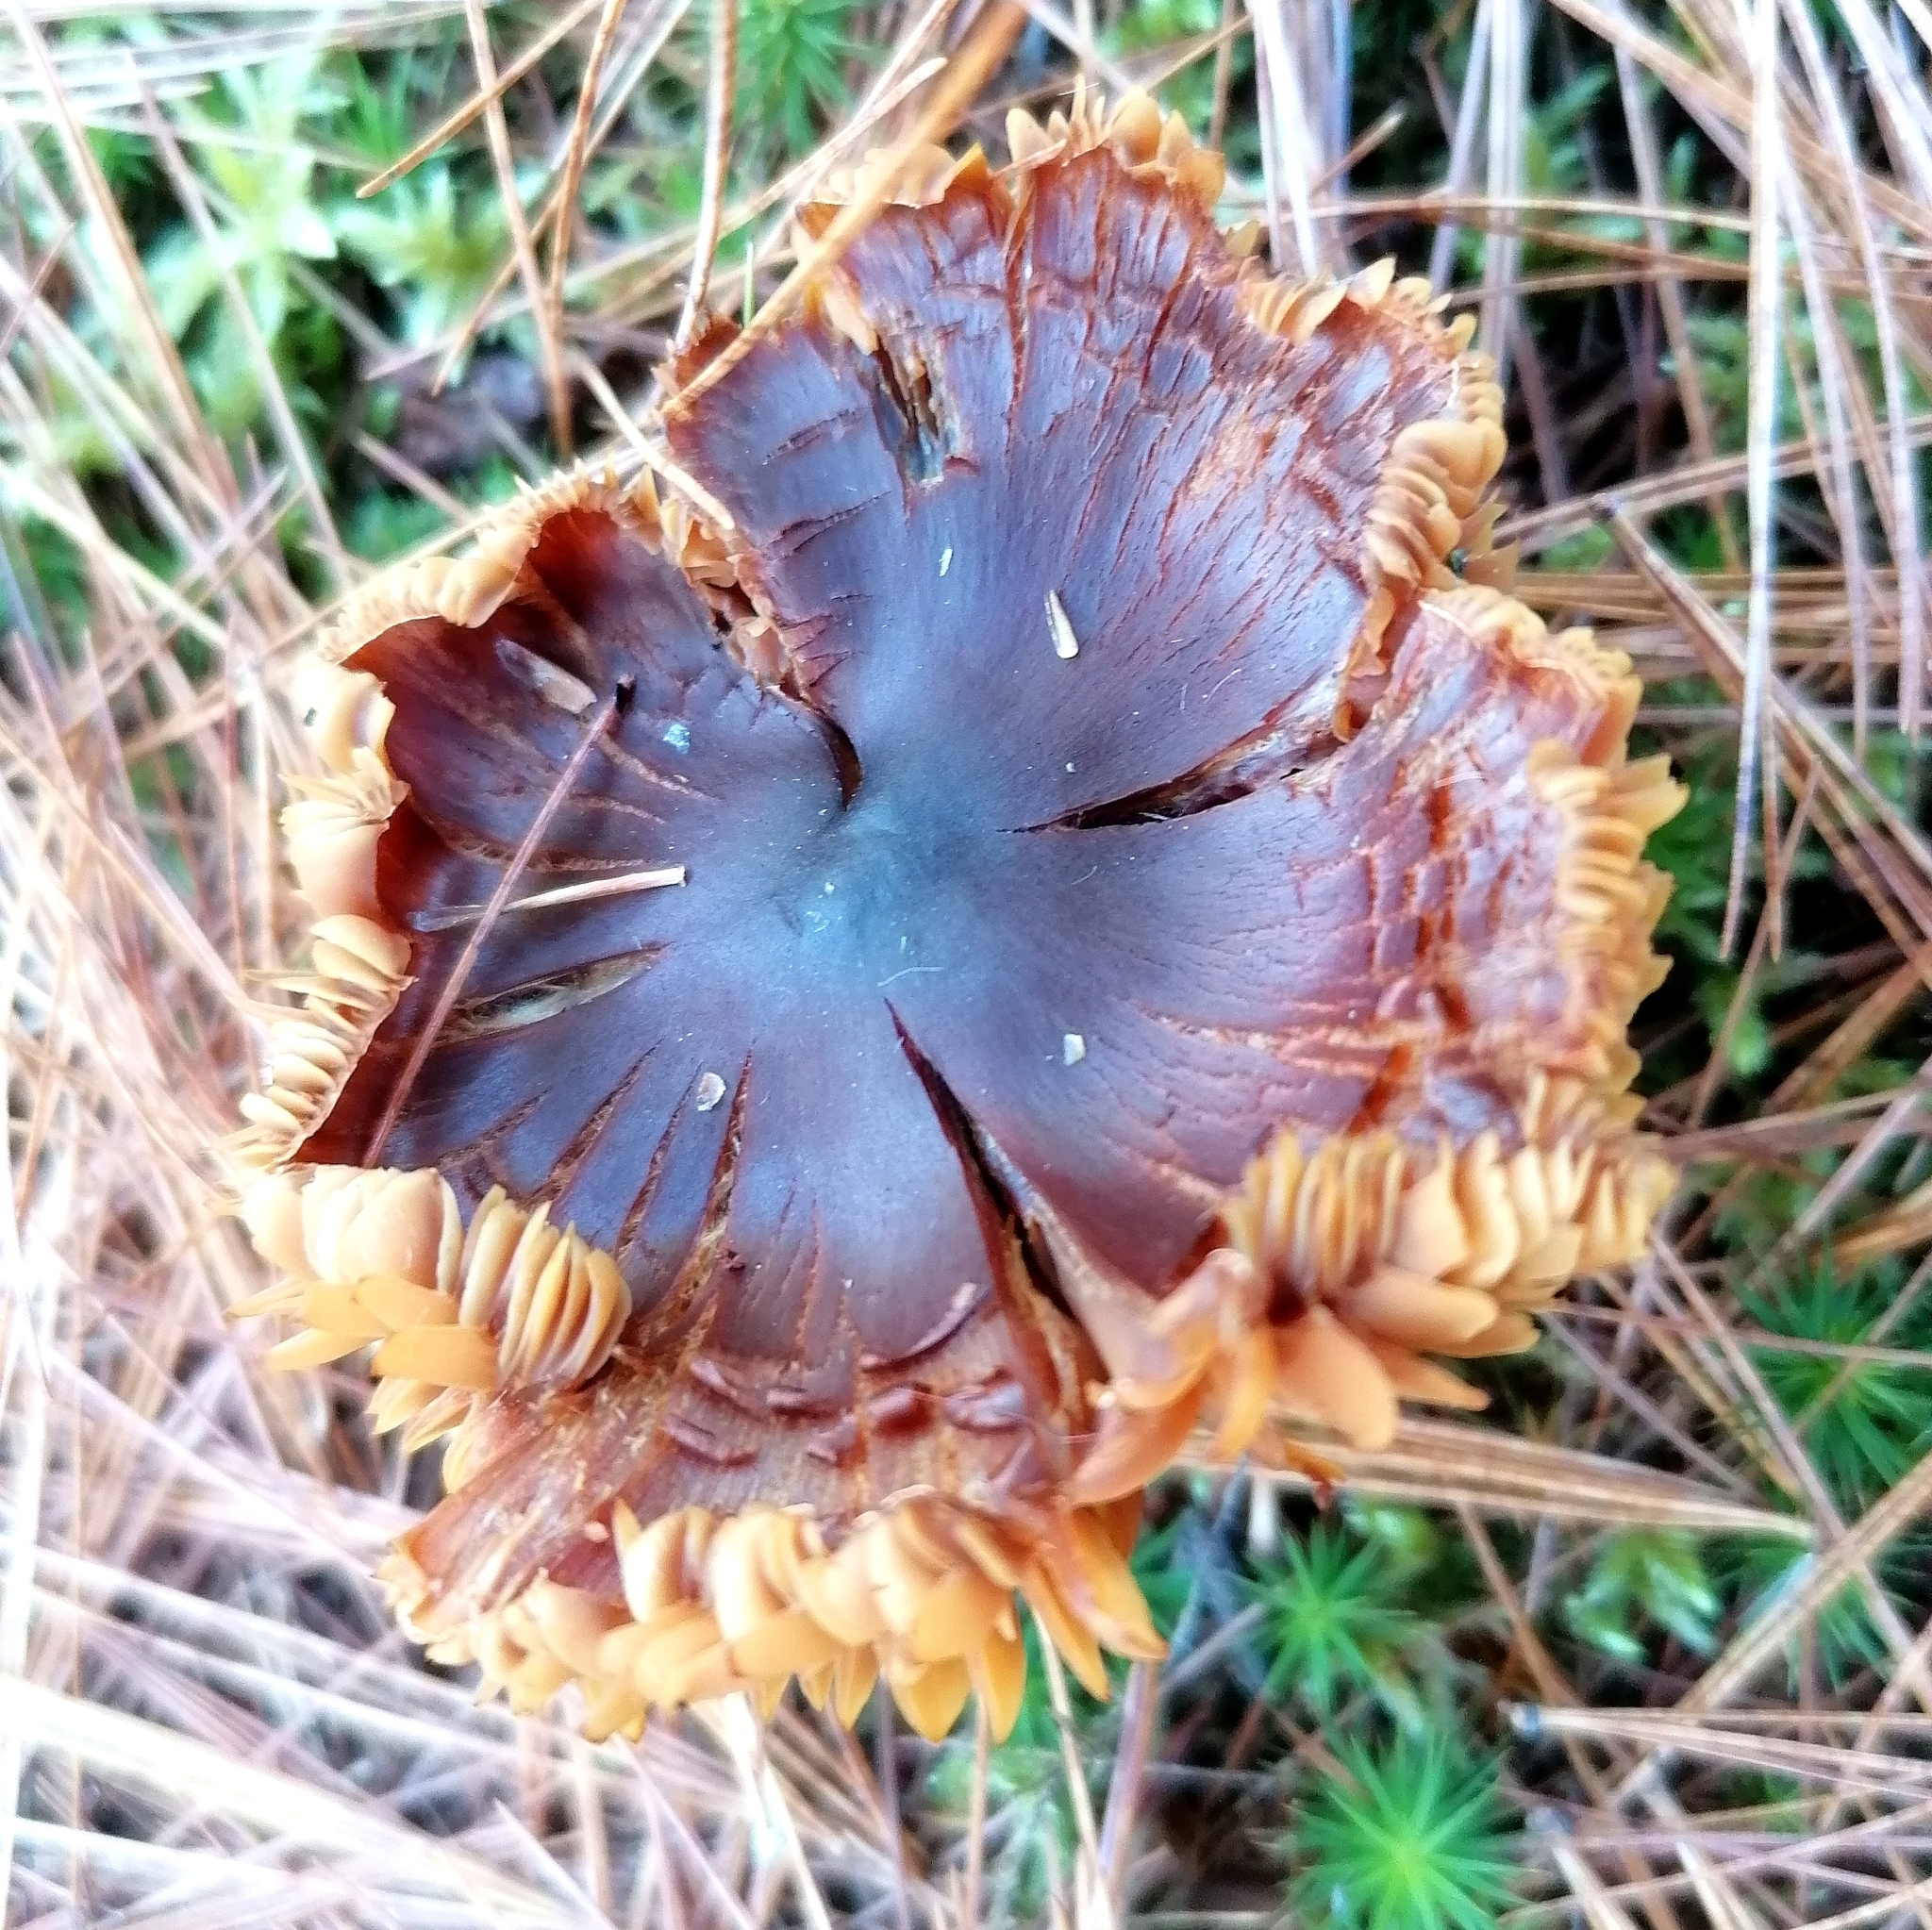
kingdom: Fungi
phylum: Basidiomycota
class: Agaricomycetes
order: Agaricales
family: Hymenogastraceae
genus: Gymnopilus
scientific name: Gymnopilus sapineus
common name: Scaly rustgill
